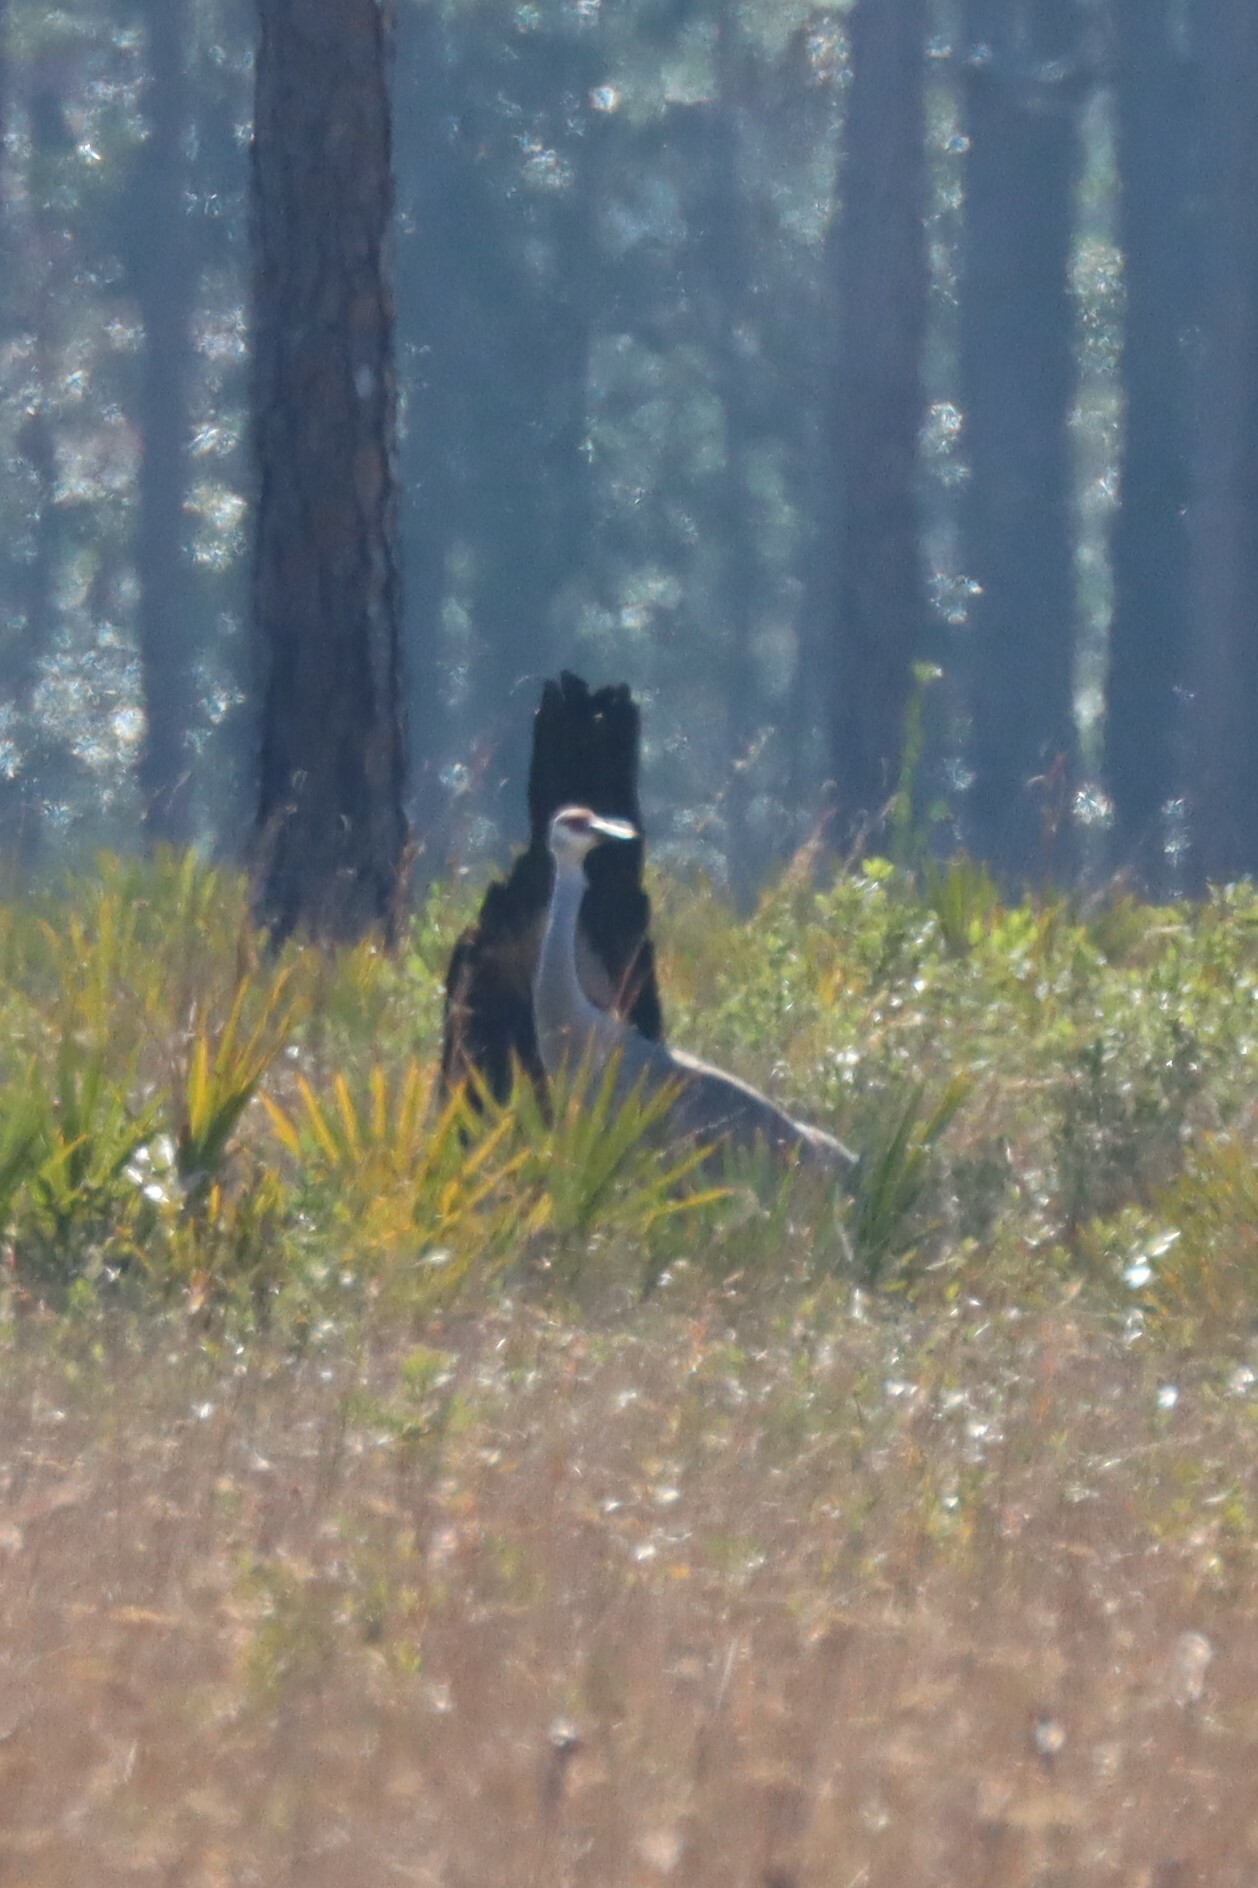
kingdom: Animalia
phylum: Chordata
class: Aves
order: Gruiformes
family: Gruidae
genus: Grus
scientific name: Grus canadensis
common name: Sandhill crane
